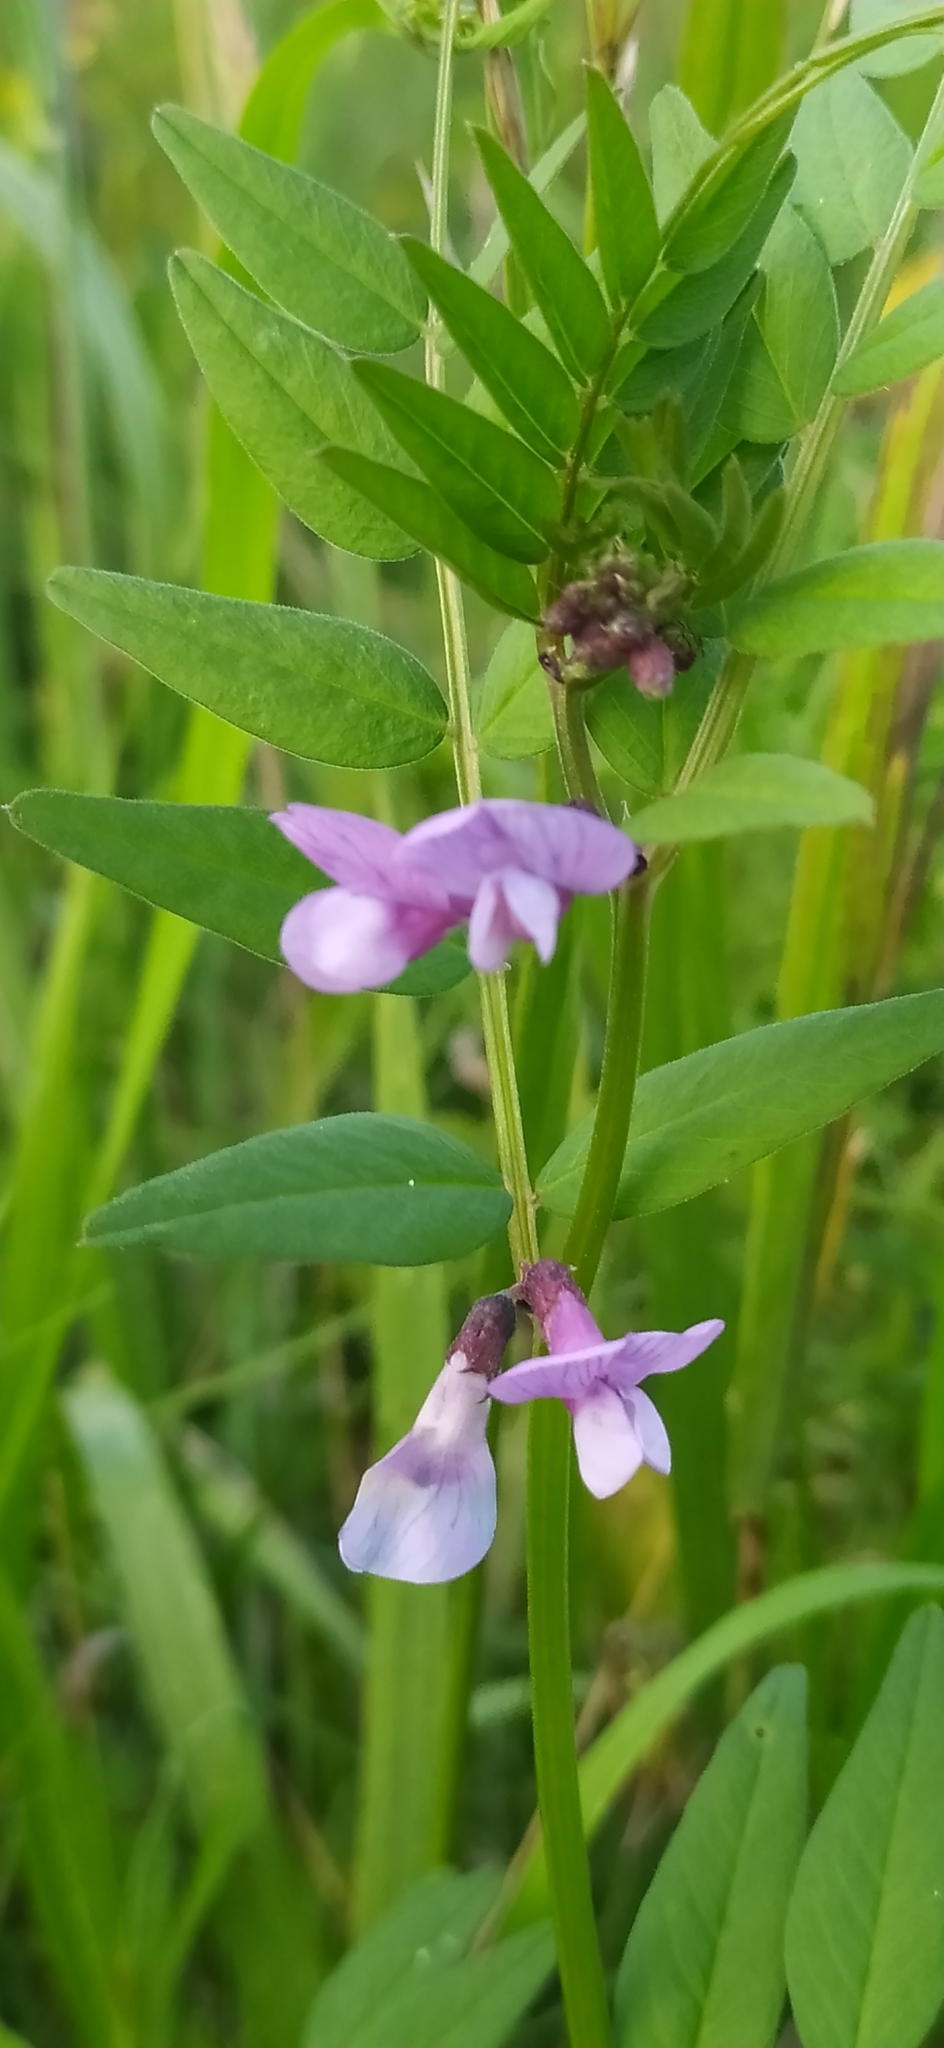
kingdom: Plantae
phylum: Tracheophyta
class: Magnoliopsida
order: Fabales
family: Fabaceae
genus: Vicia
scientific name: Vicia sepium
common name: Bush vetch
